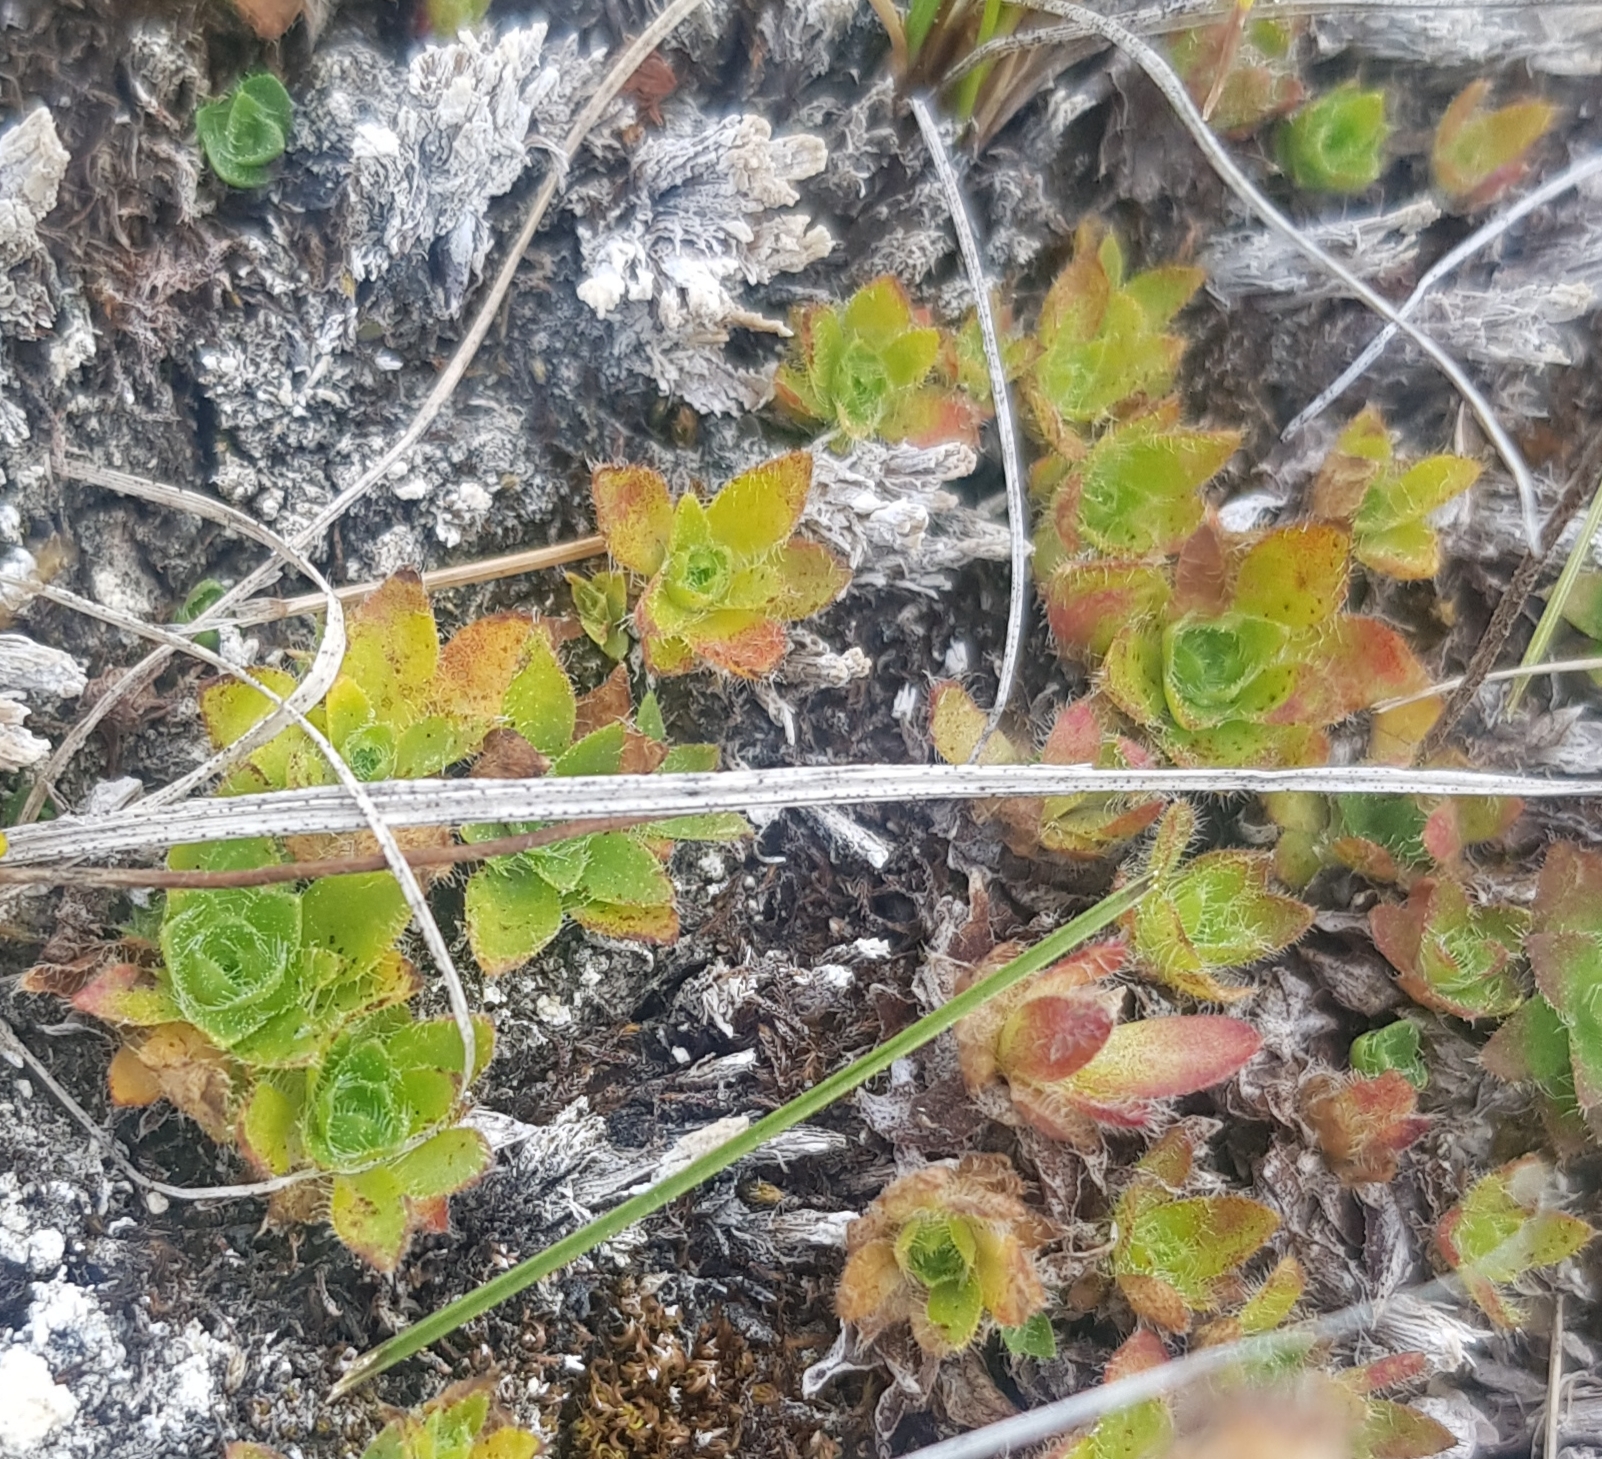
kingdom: Plantae
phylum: Tracheophyta
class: Magnoliopsida
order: Ericales
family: Primulaceae
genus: Androsace
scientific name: Androsace chamaejasme
